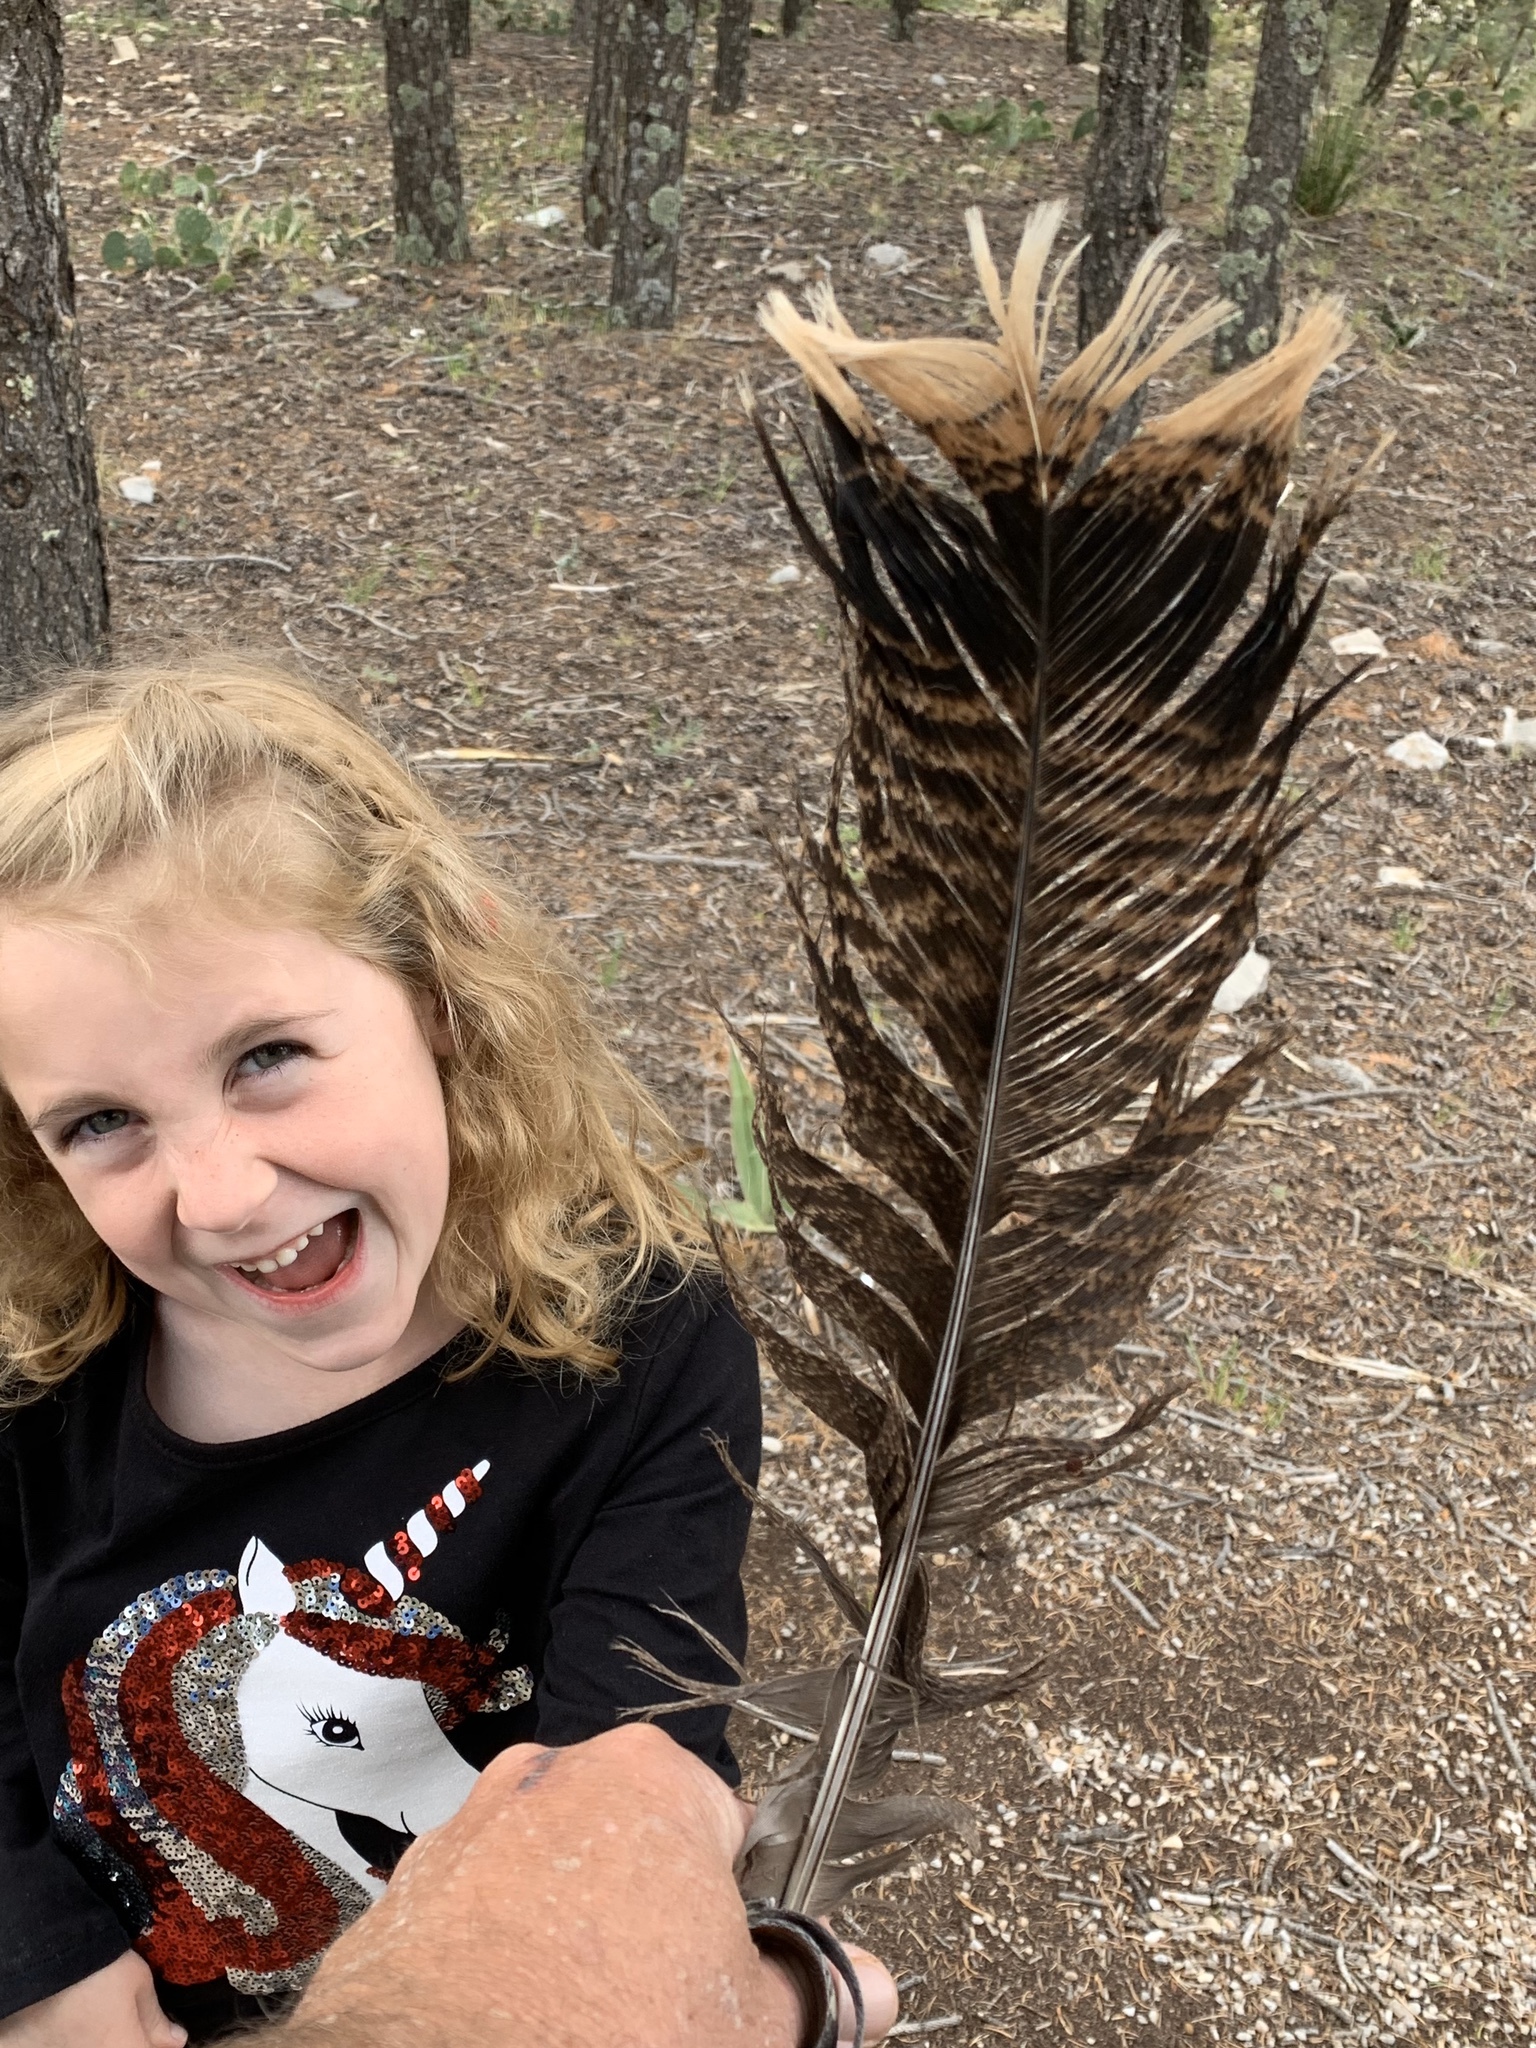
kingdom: Animalia
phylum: Chordata
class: Aves
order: Galliformes
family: Phasianidae
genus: Meleagris
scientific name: Meleagris gallopavo
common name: Wild turkey
